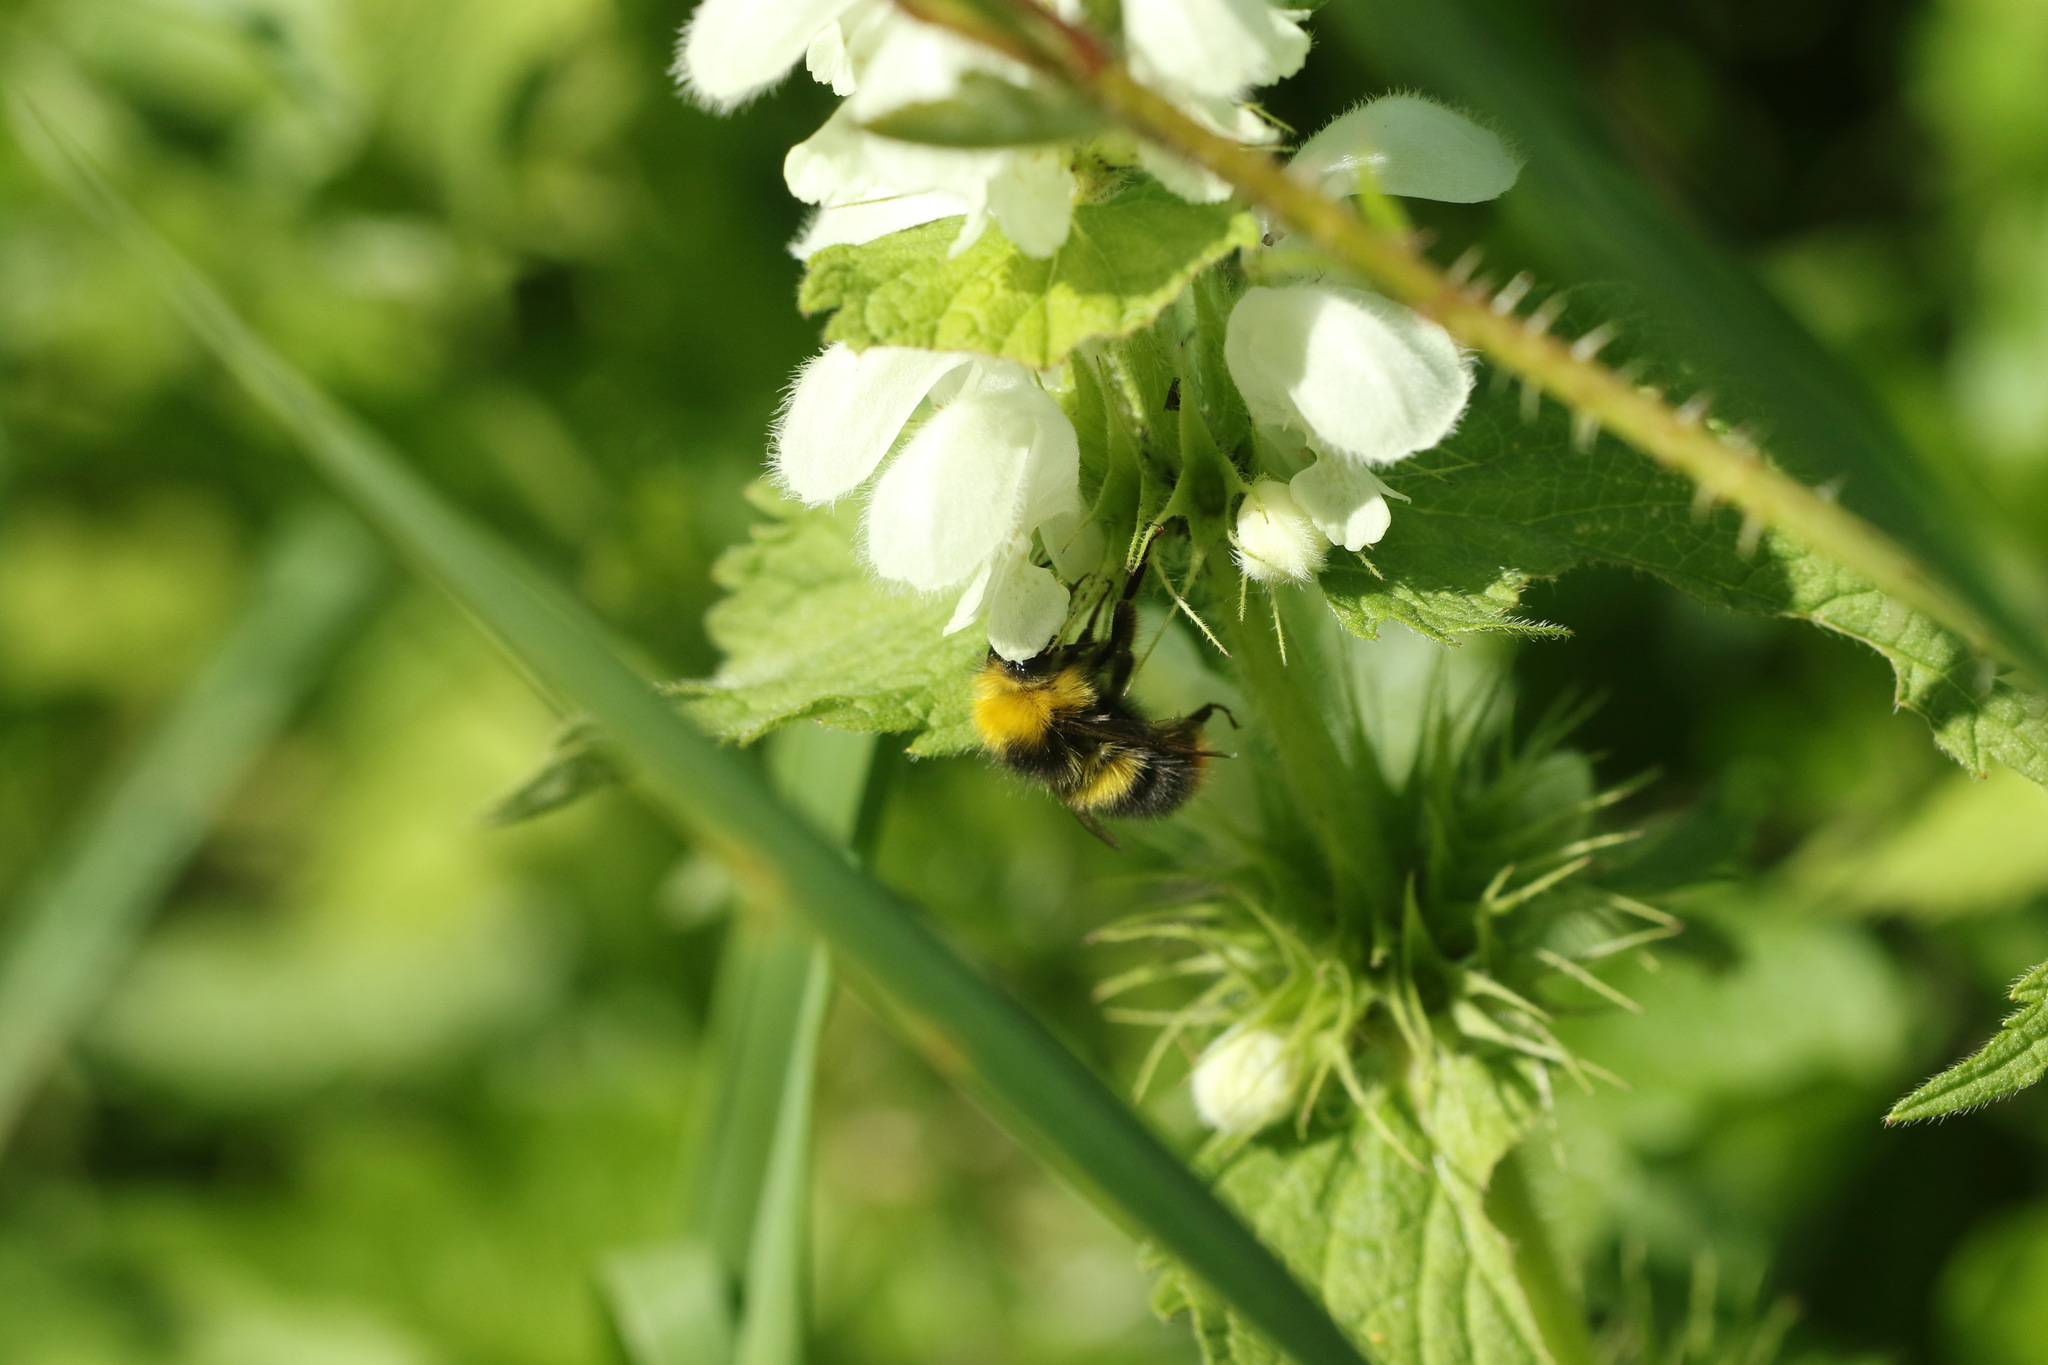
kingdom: Animalia
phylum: Arthropoda
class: Insecta
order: Hymenoptera
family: Apidae
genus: Bombus
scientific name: Bombus pratorum
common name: Early humble-bee
